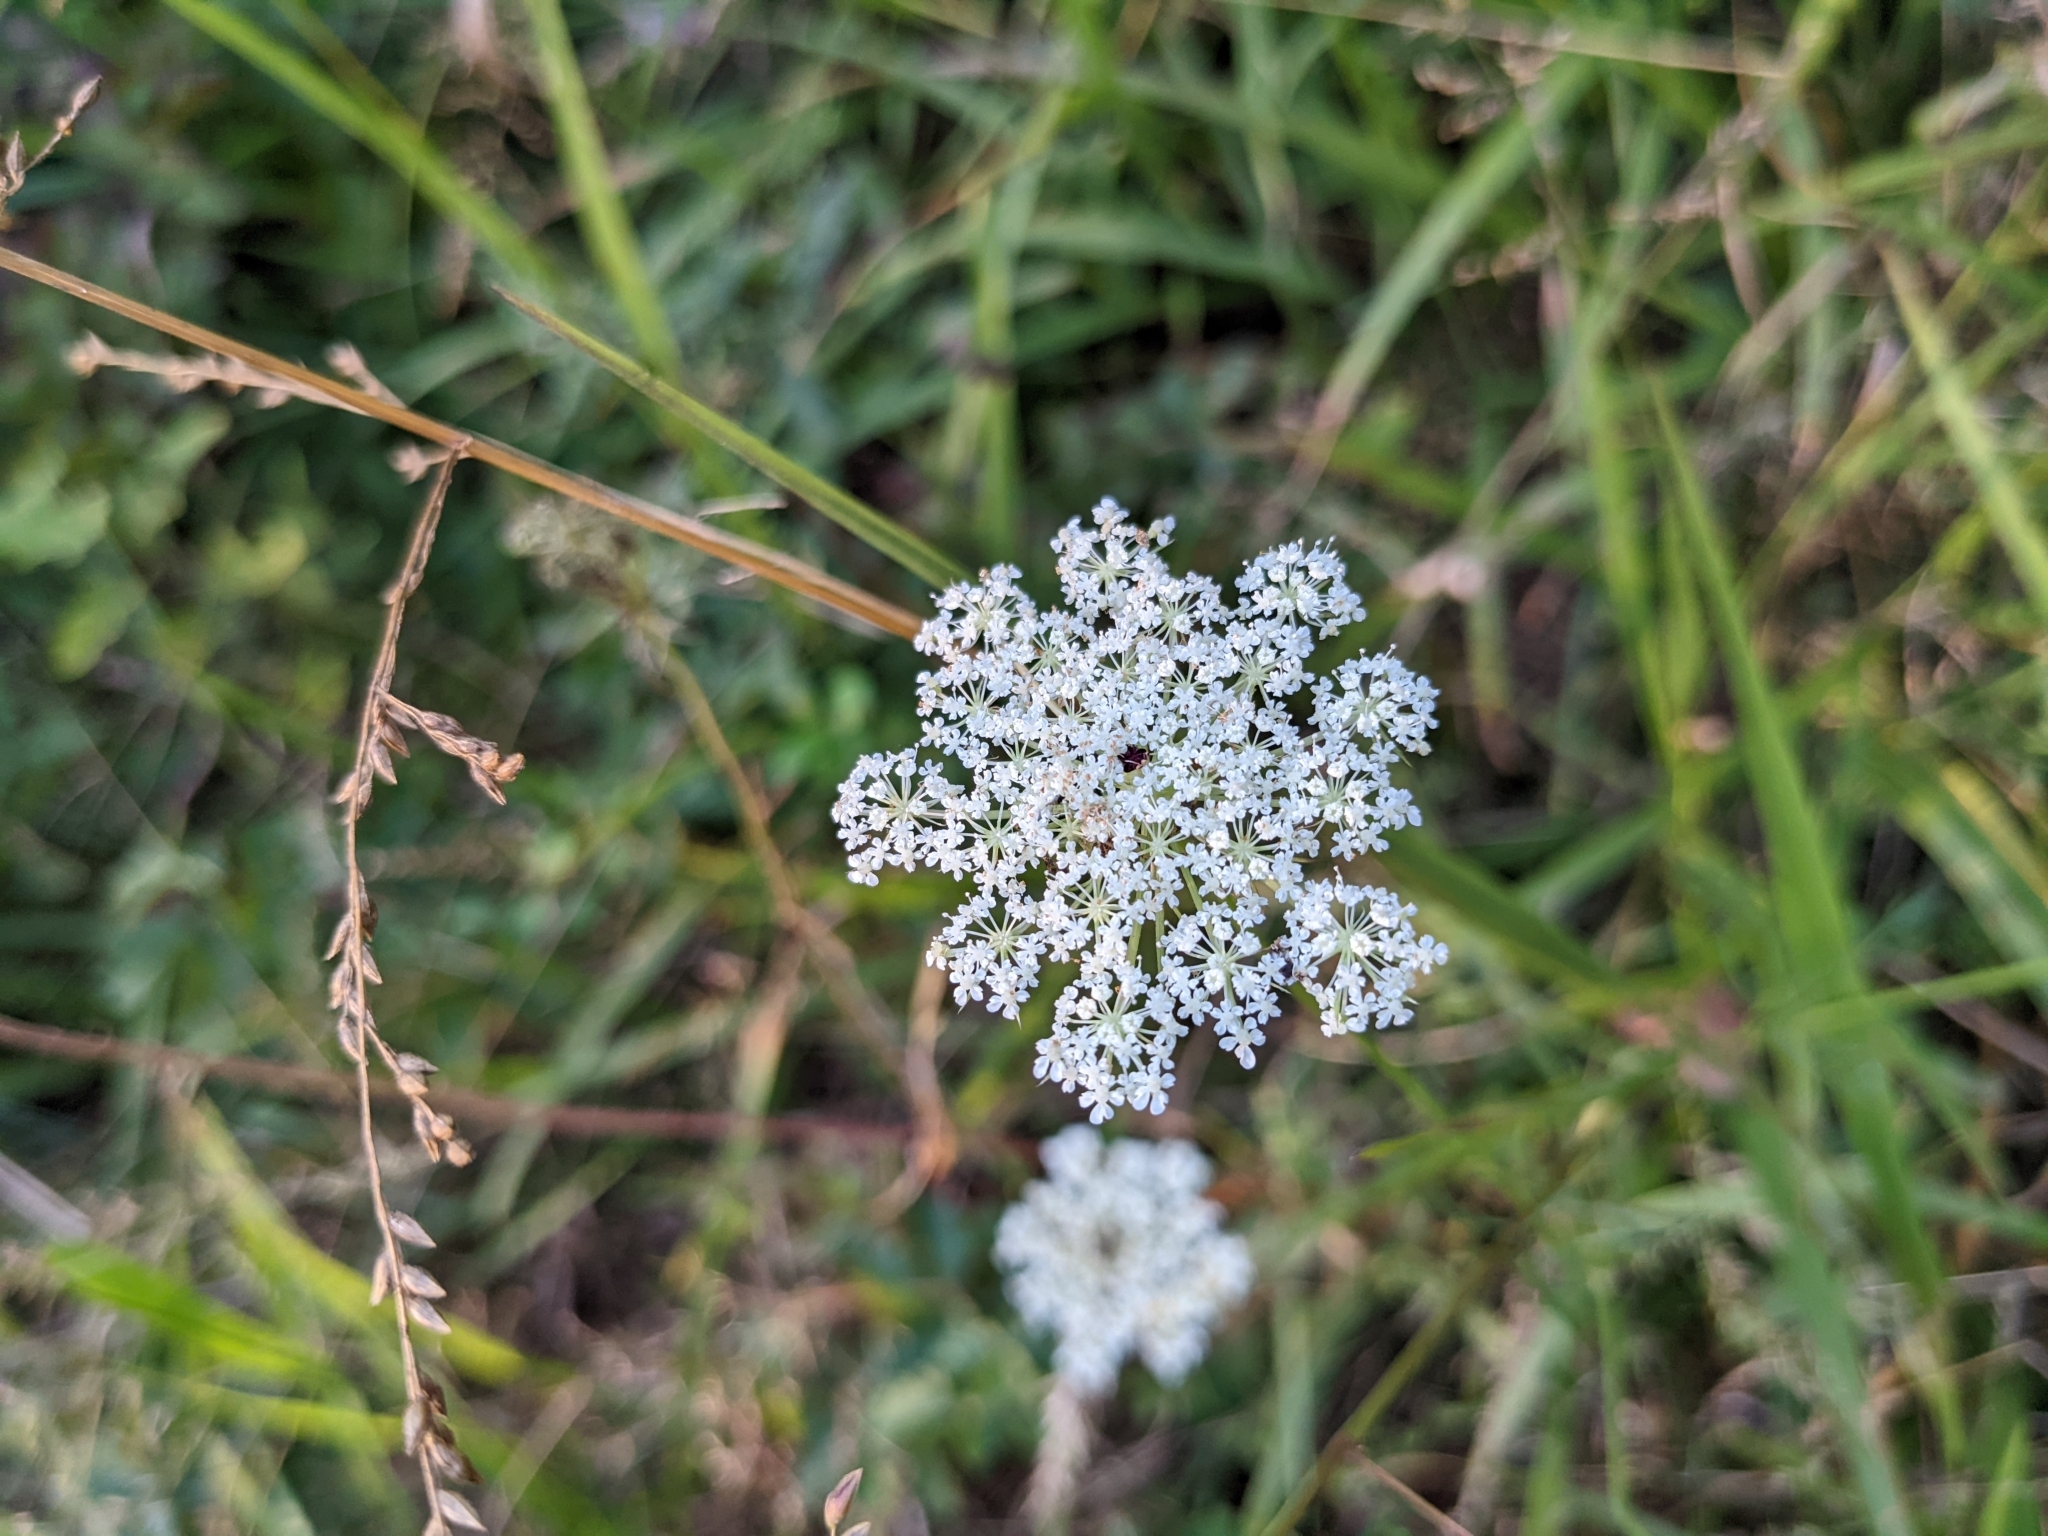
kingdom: Plantae
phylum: Tracheophyta
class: Magnoliopsida
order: Apiales
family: Apiaceae
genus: Daucus
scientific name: Daucus carota
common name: Wild carrot
